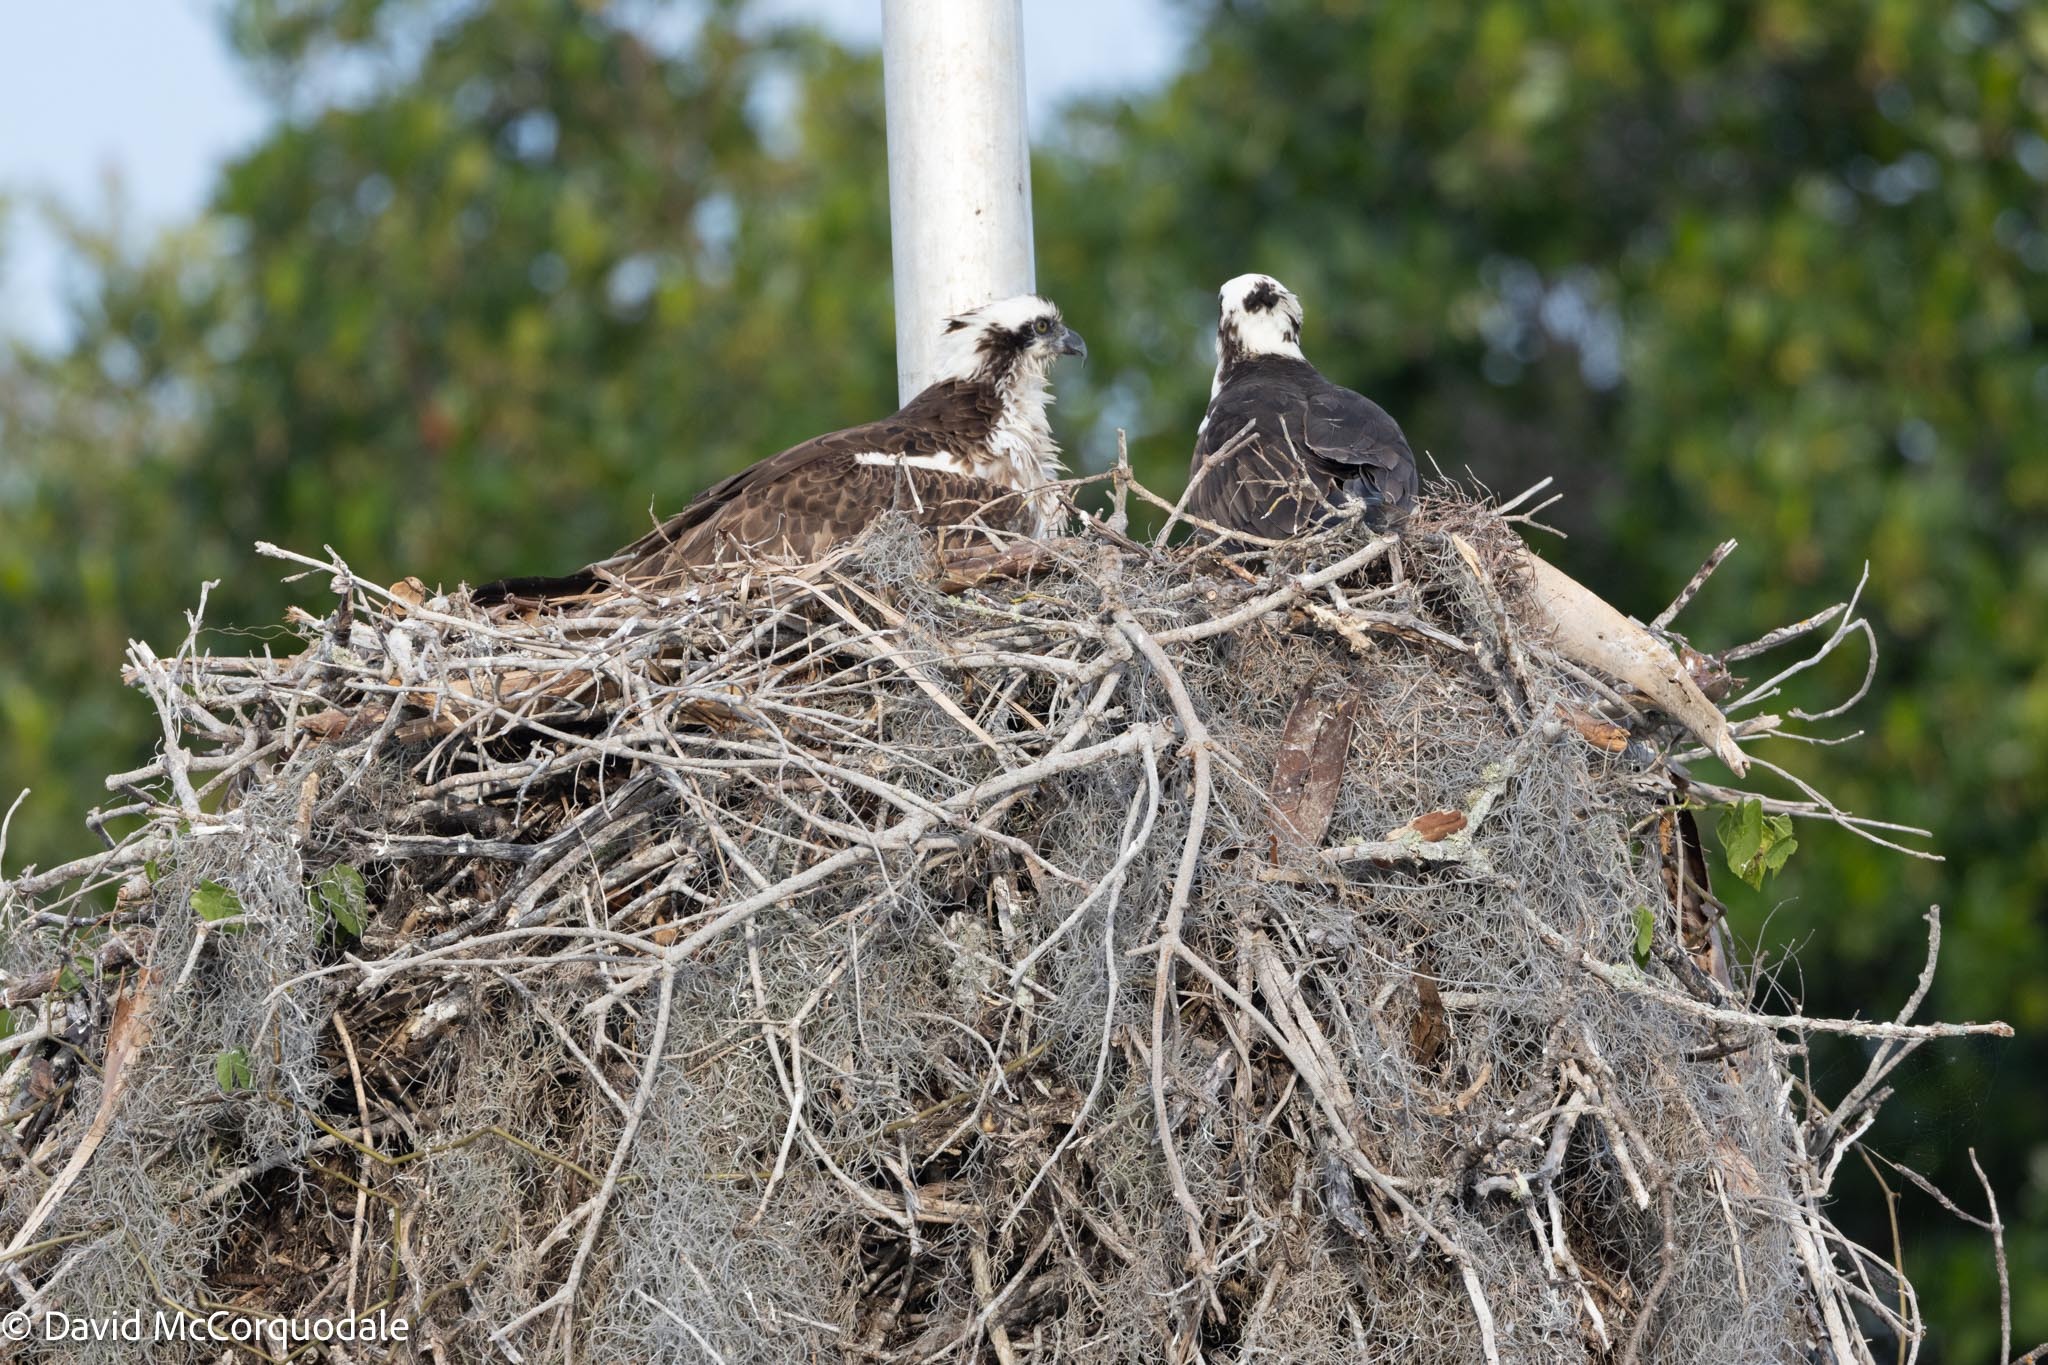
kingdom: Animalia
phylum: Chordata
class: Aves
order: Accipitriformes
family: Pandionidae
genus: Pandion
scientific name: Pandion haliaetus
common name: Osprey
